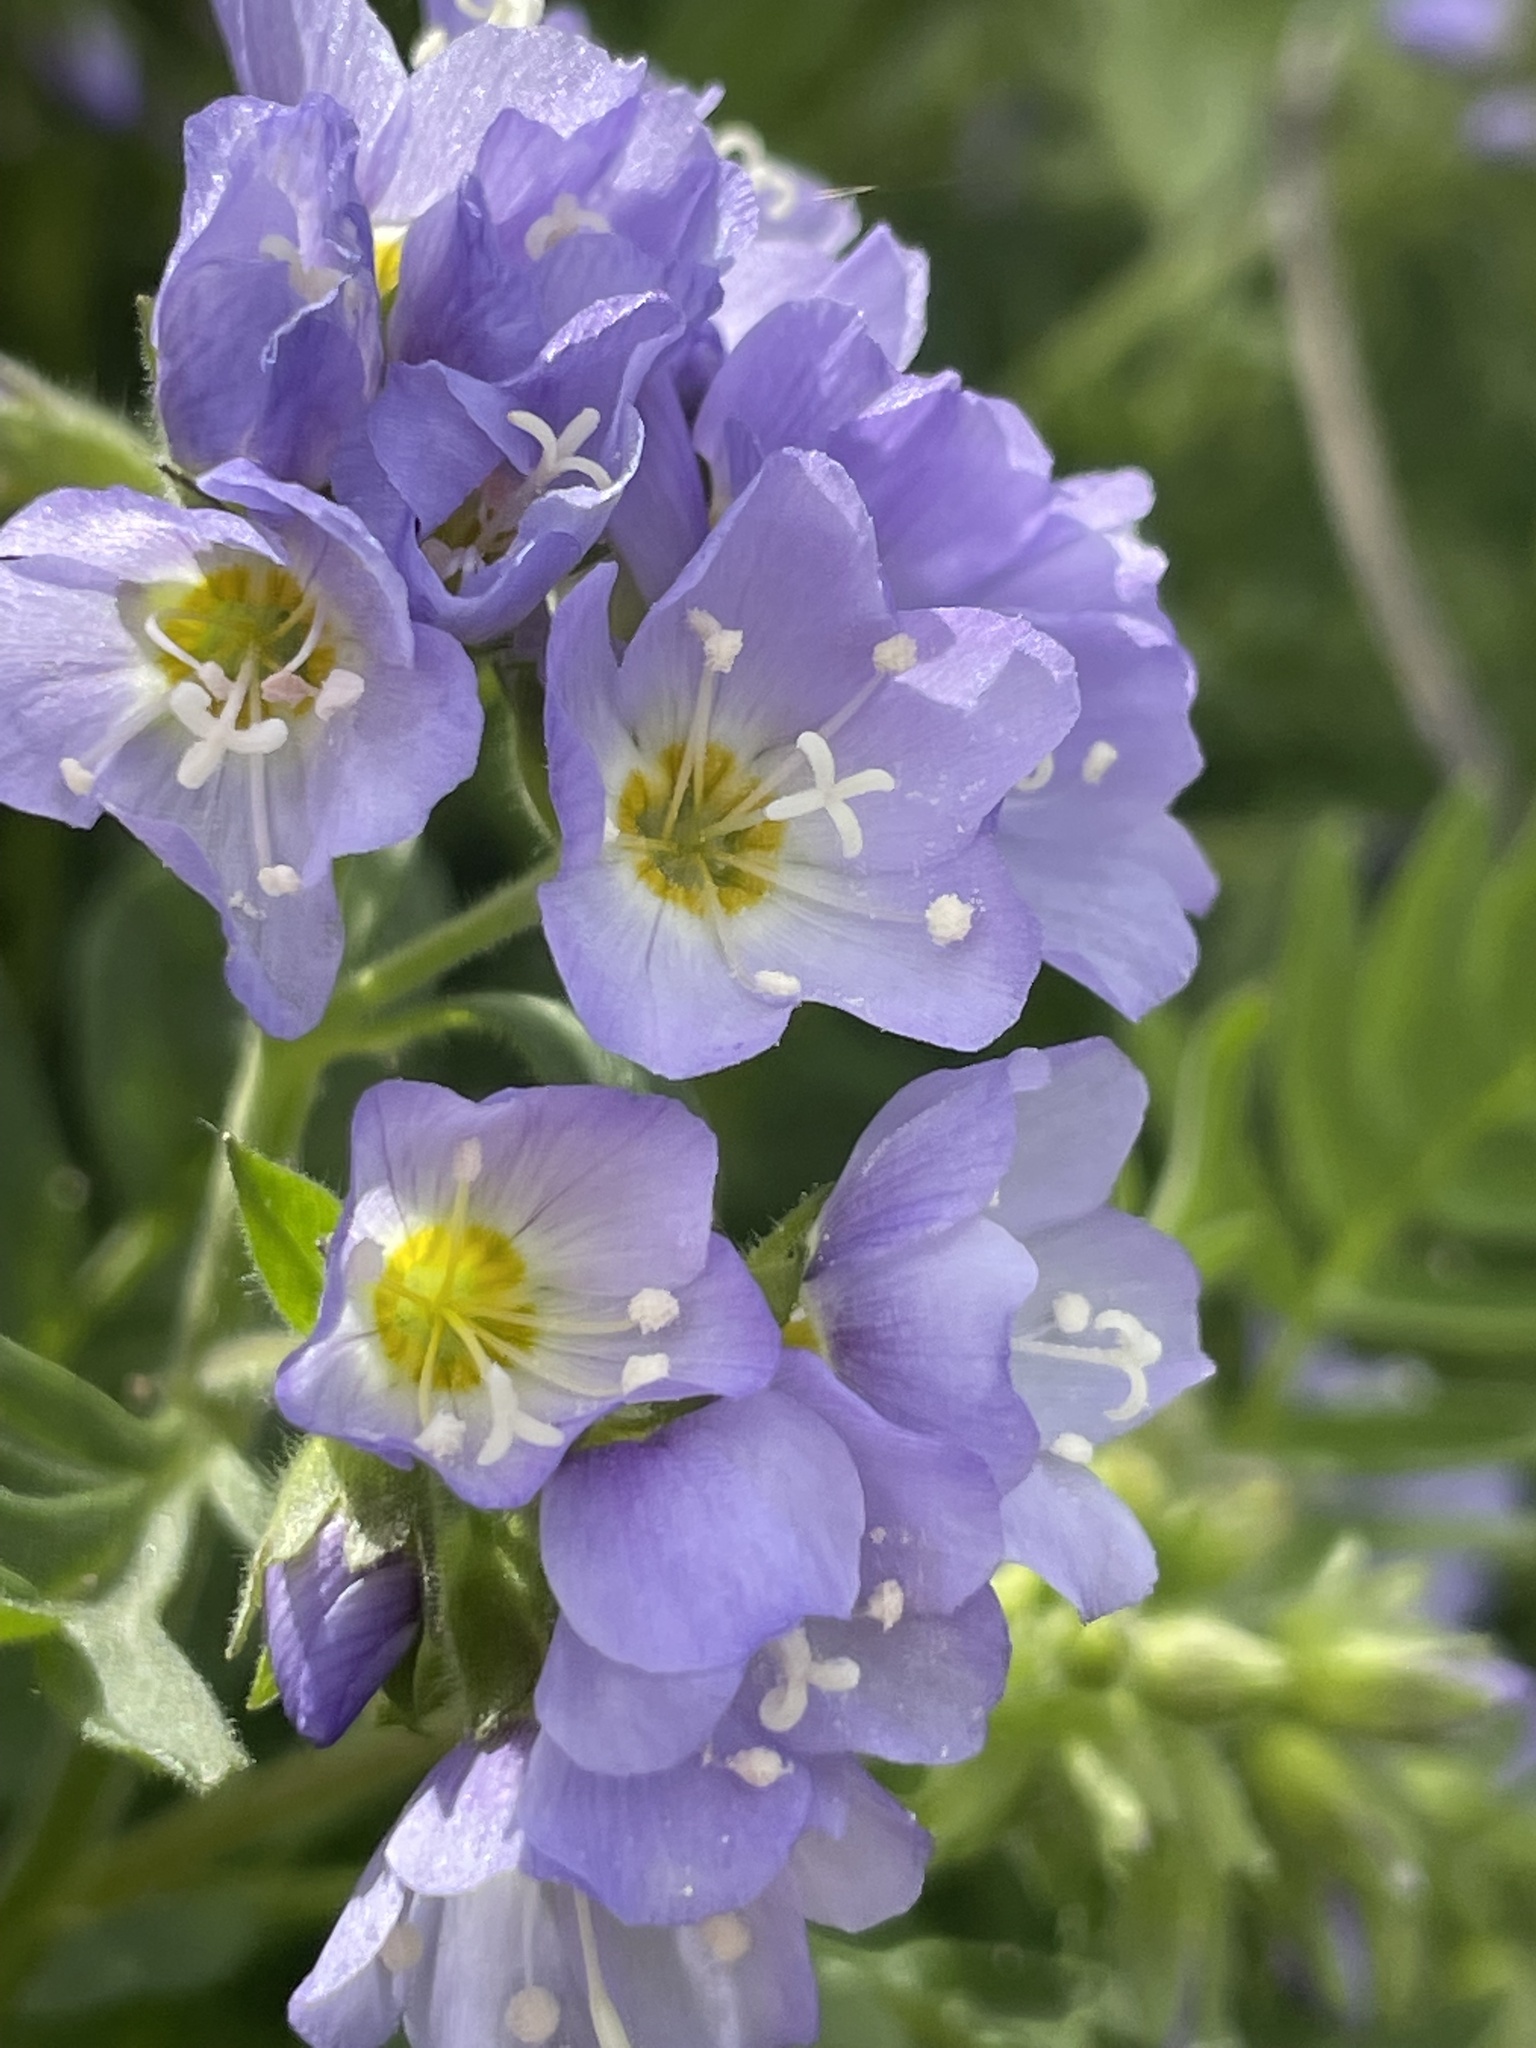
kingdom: Plantae
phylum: Tracheophyta
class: Magnoliopsida
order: Ericales
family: Polemoniaceae
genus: Polemonium
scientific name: Polemonium californicum
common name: California jacob's ladder
